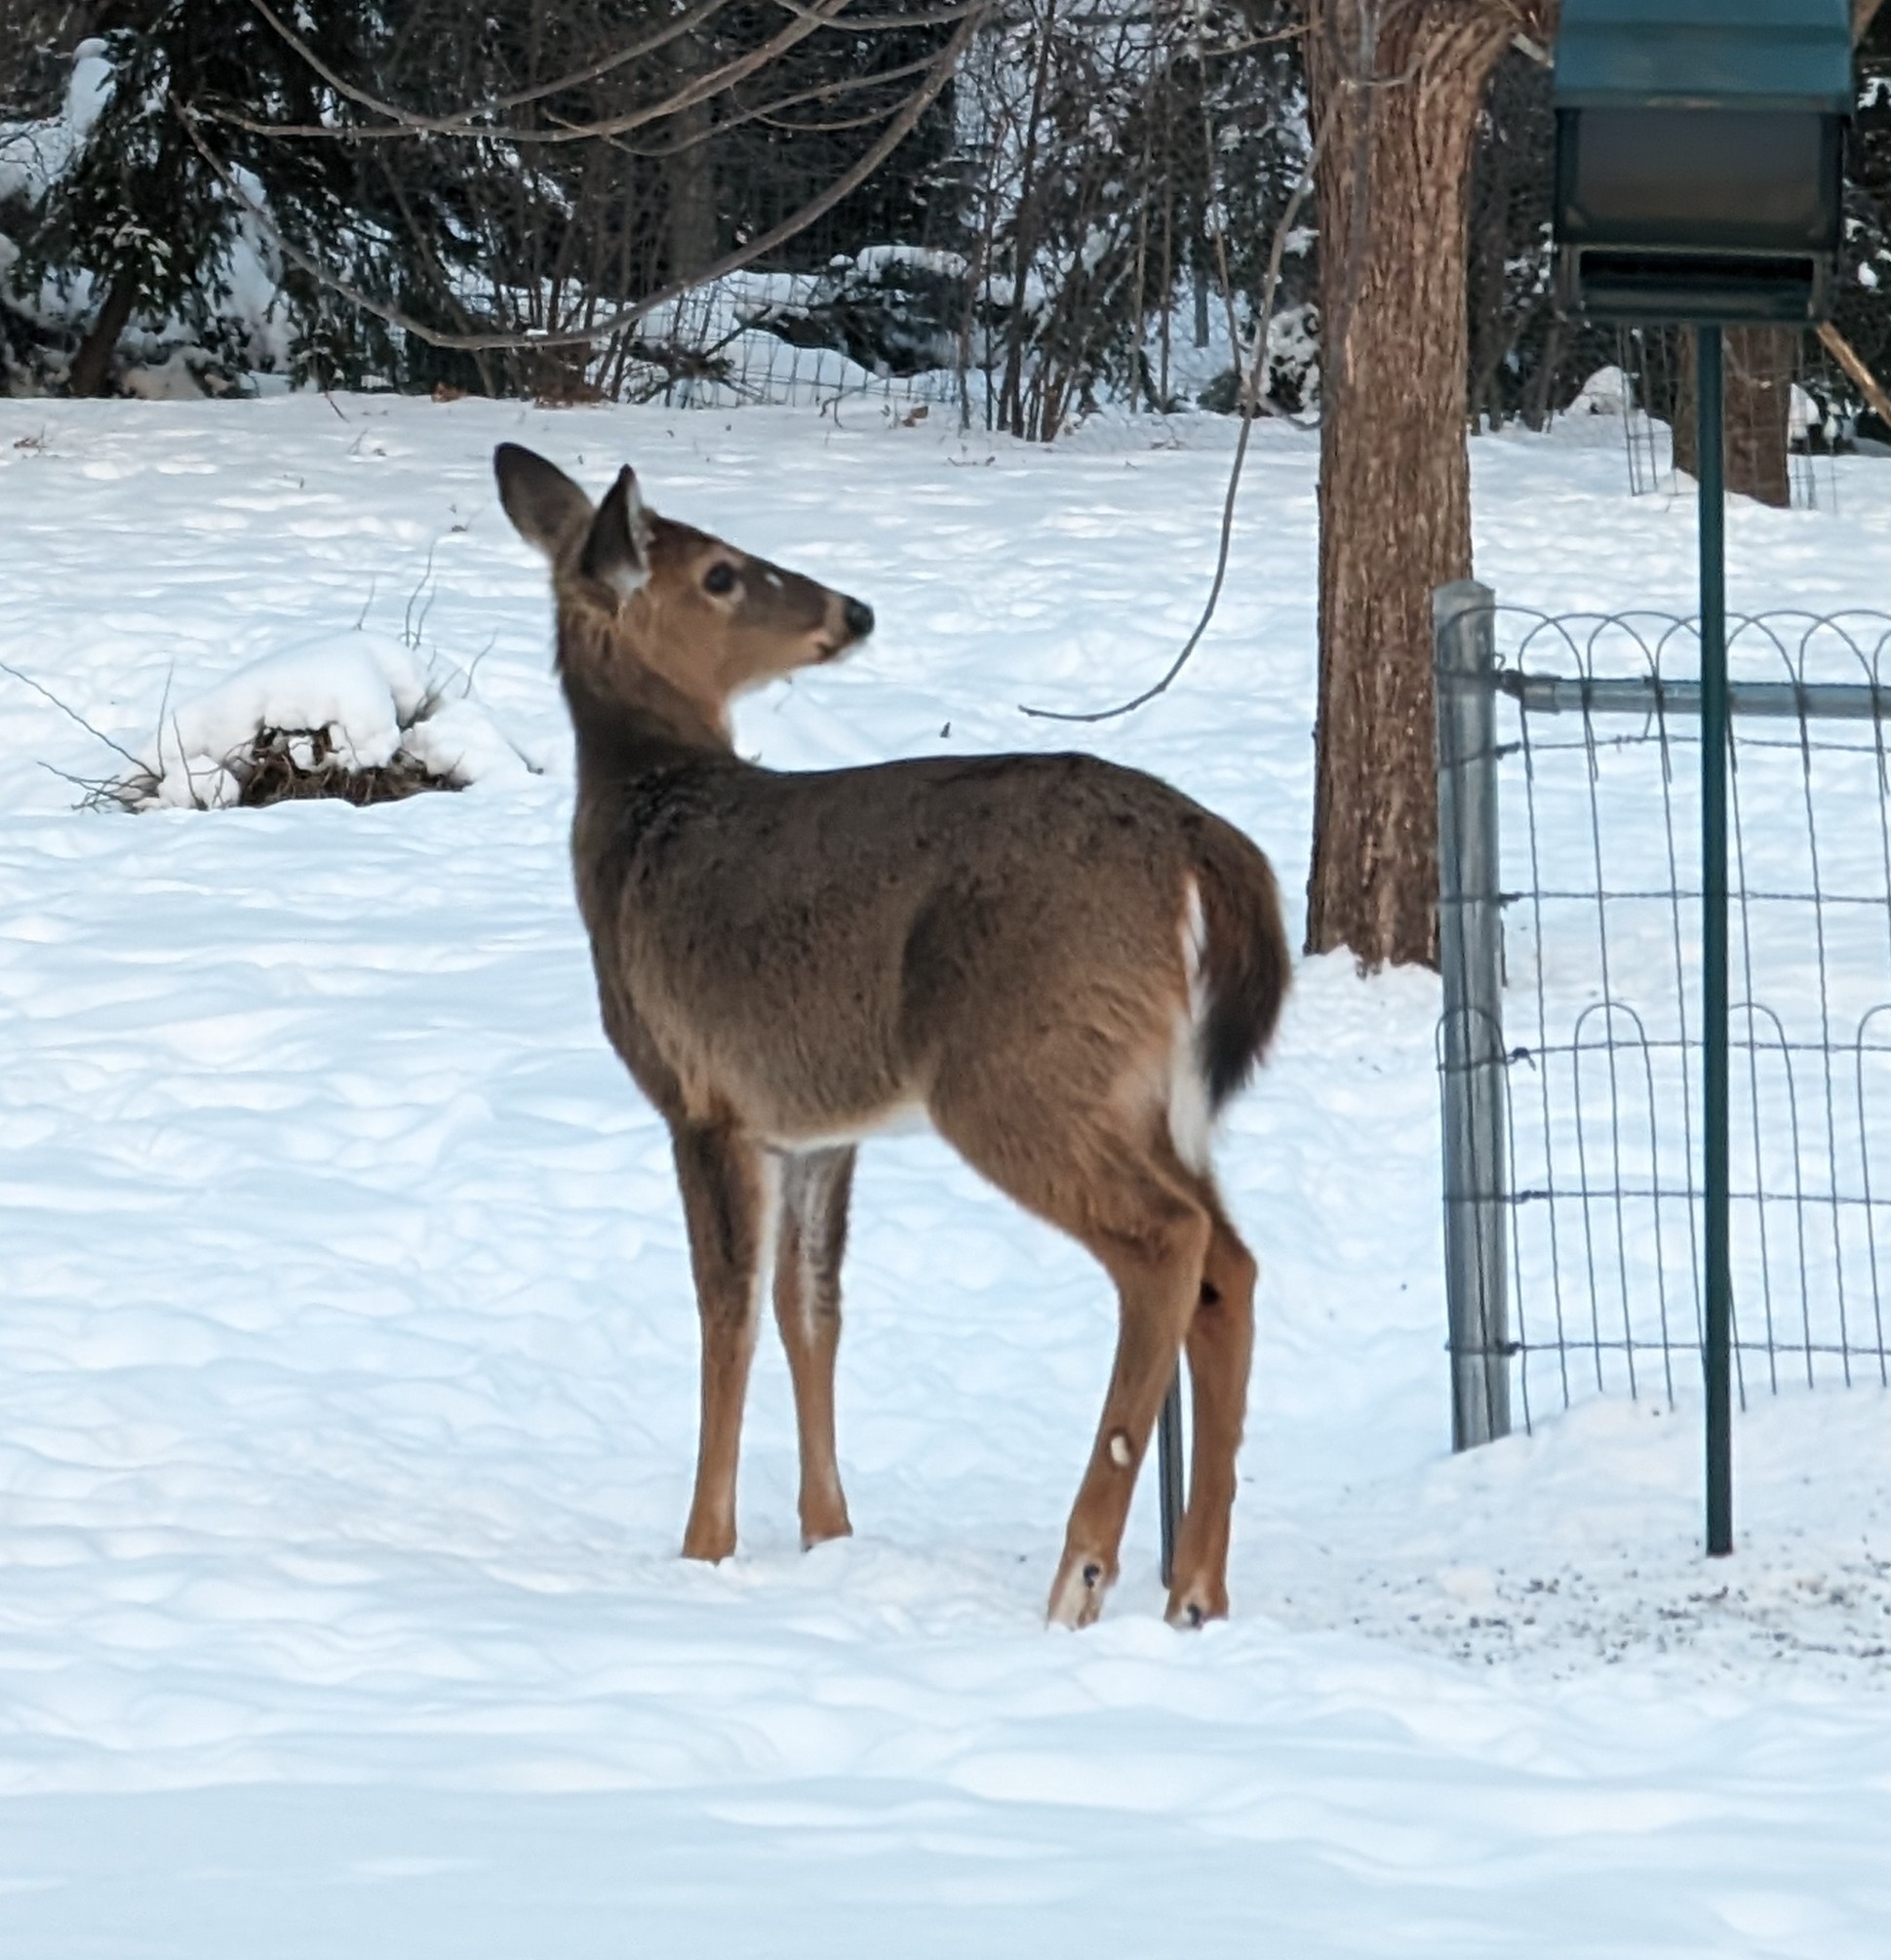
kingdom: Animalia
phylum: Chordata
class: Mammalia
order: Artiodactyla
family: Cervidae
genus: Odocoileus
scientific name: Odocoileus virginianus
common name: White-tailed deer
